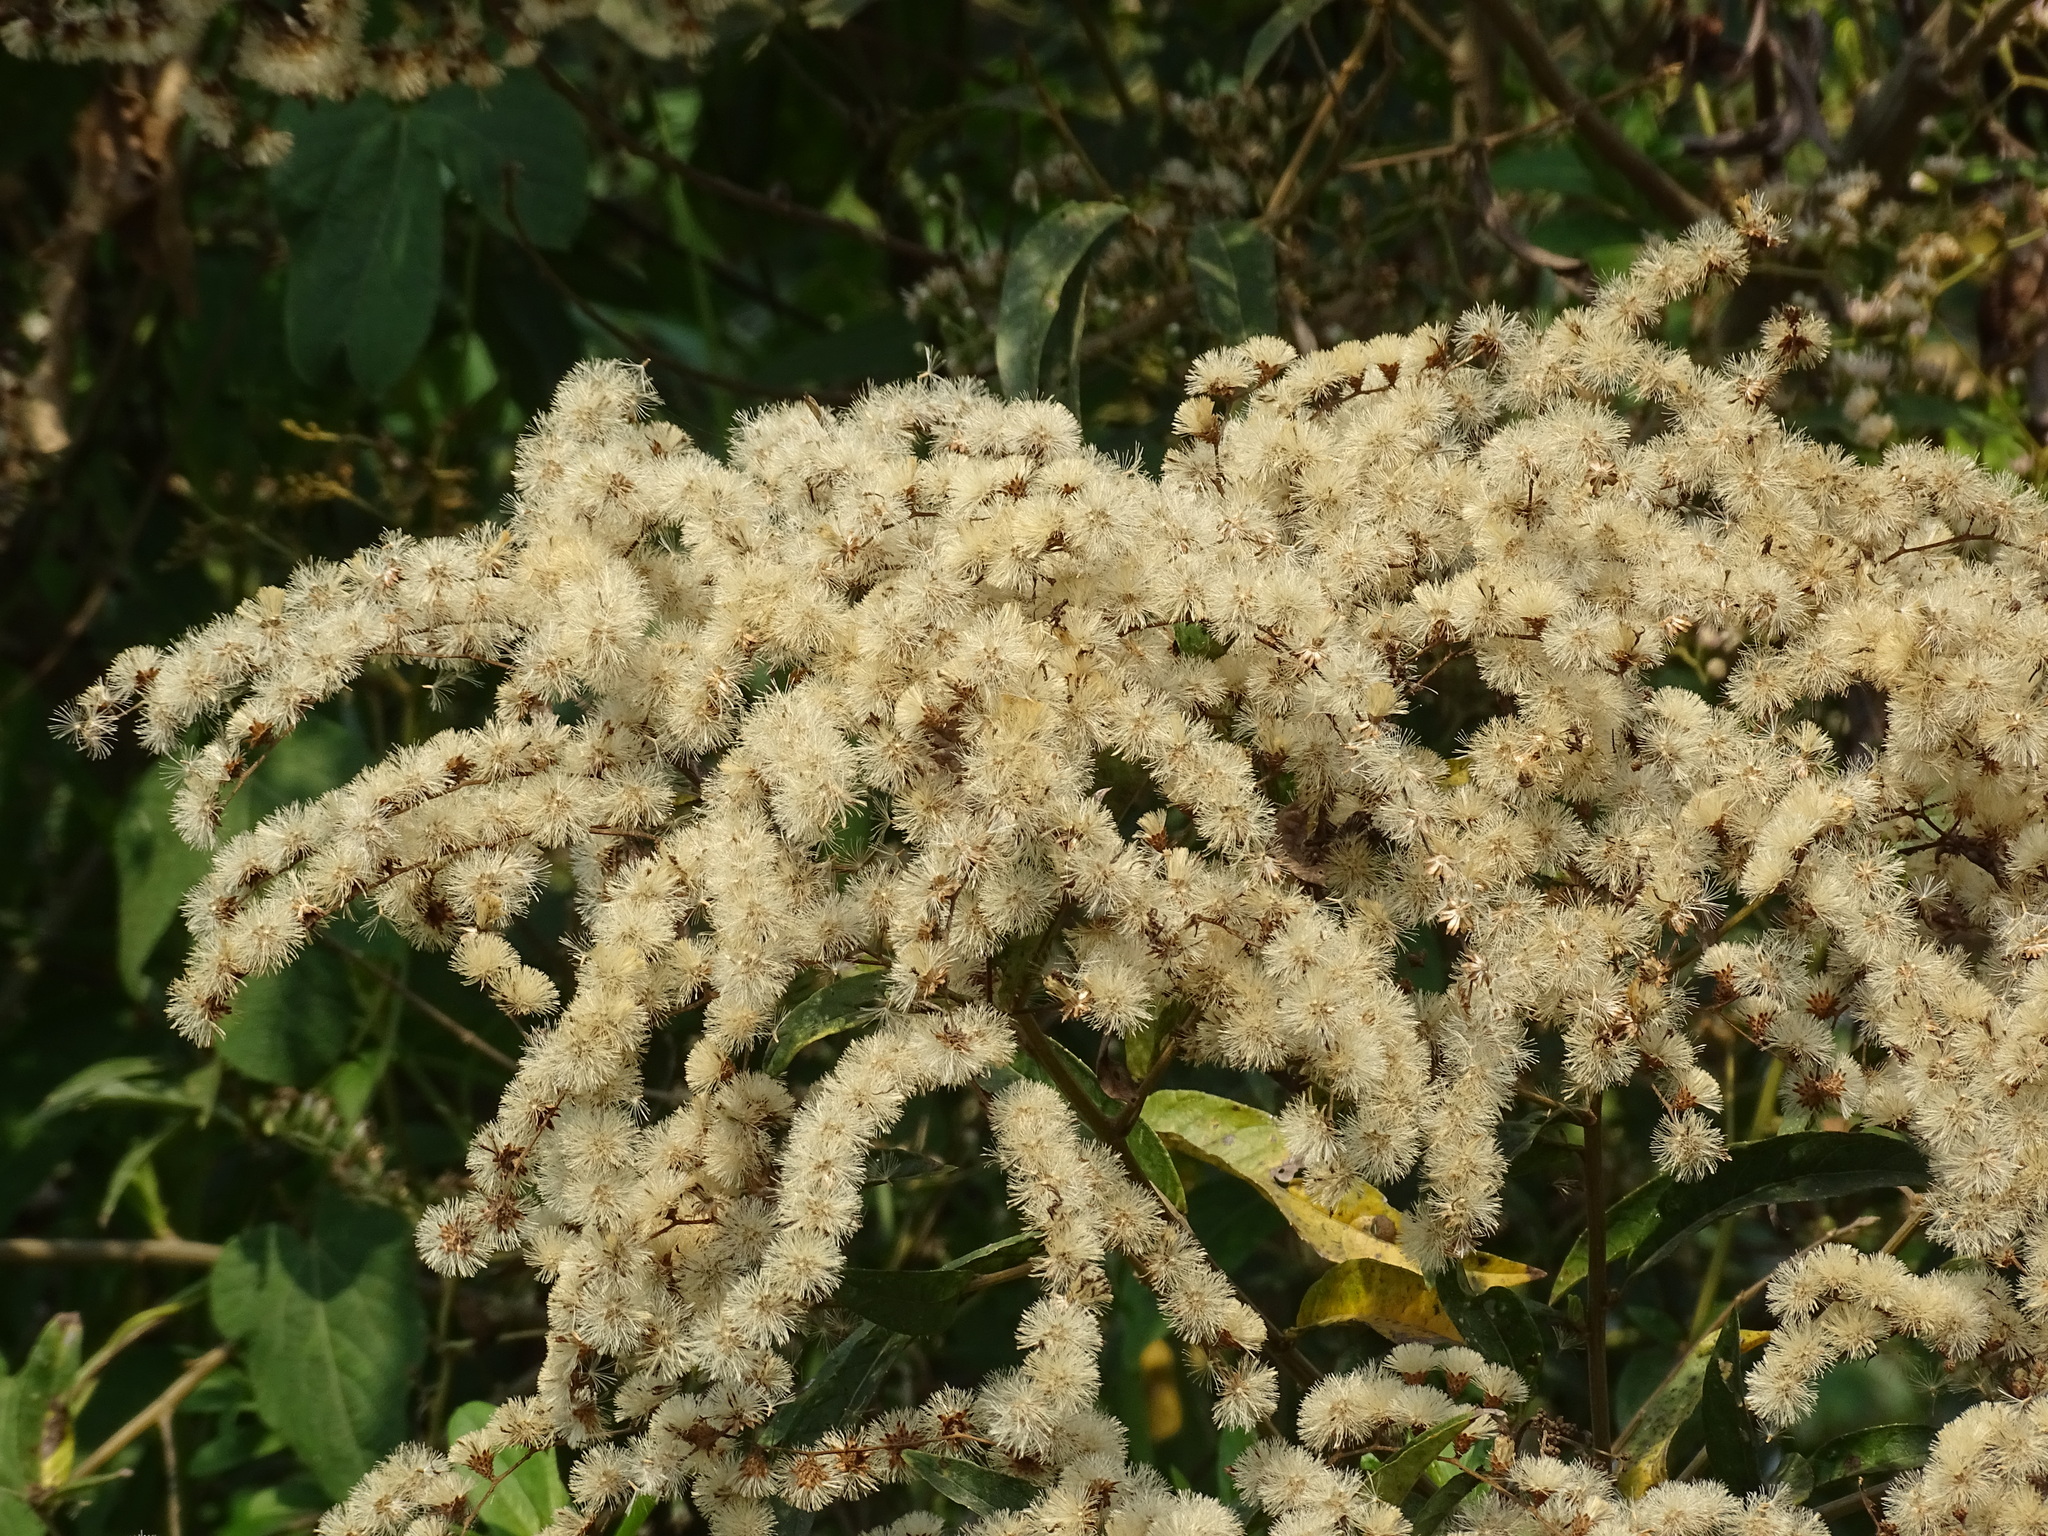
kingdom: Plantae
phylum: Tracheophyta
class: Magnoliopsida
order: Asterales
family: Asteraceae
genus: Lepidaploa
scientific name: Lepidaploa polypleura
